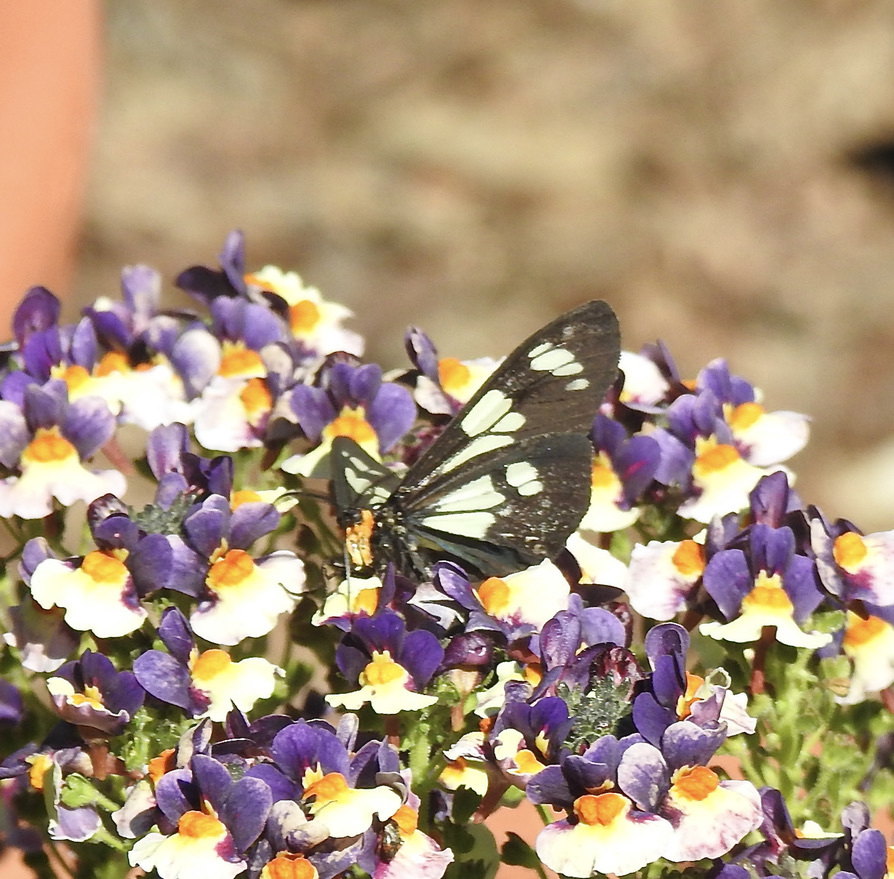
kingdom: Animalia
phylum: Arthropoda
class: Insecta
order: Lepidoptera
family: Erebidae
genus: Gnophaela
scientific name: Gnophaela latipennis
